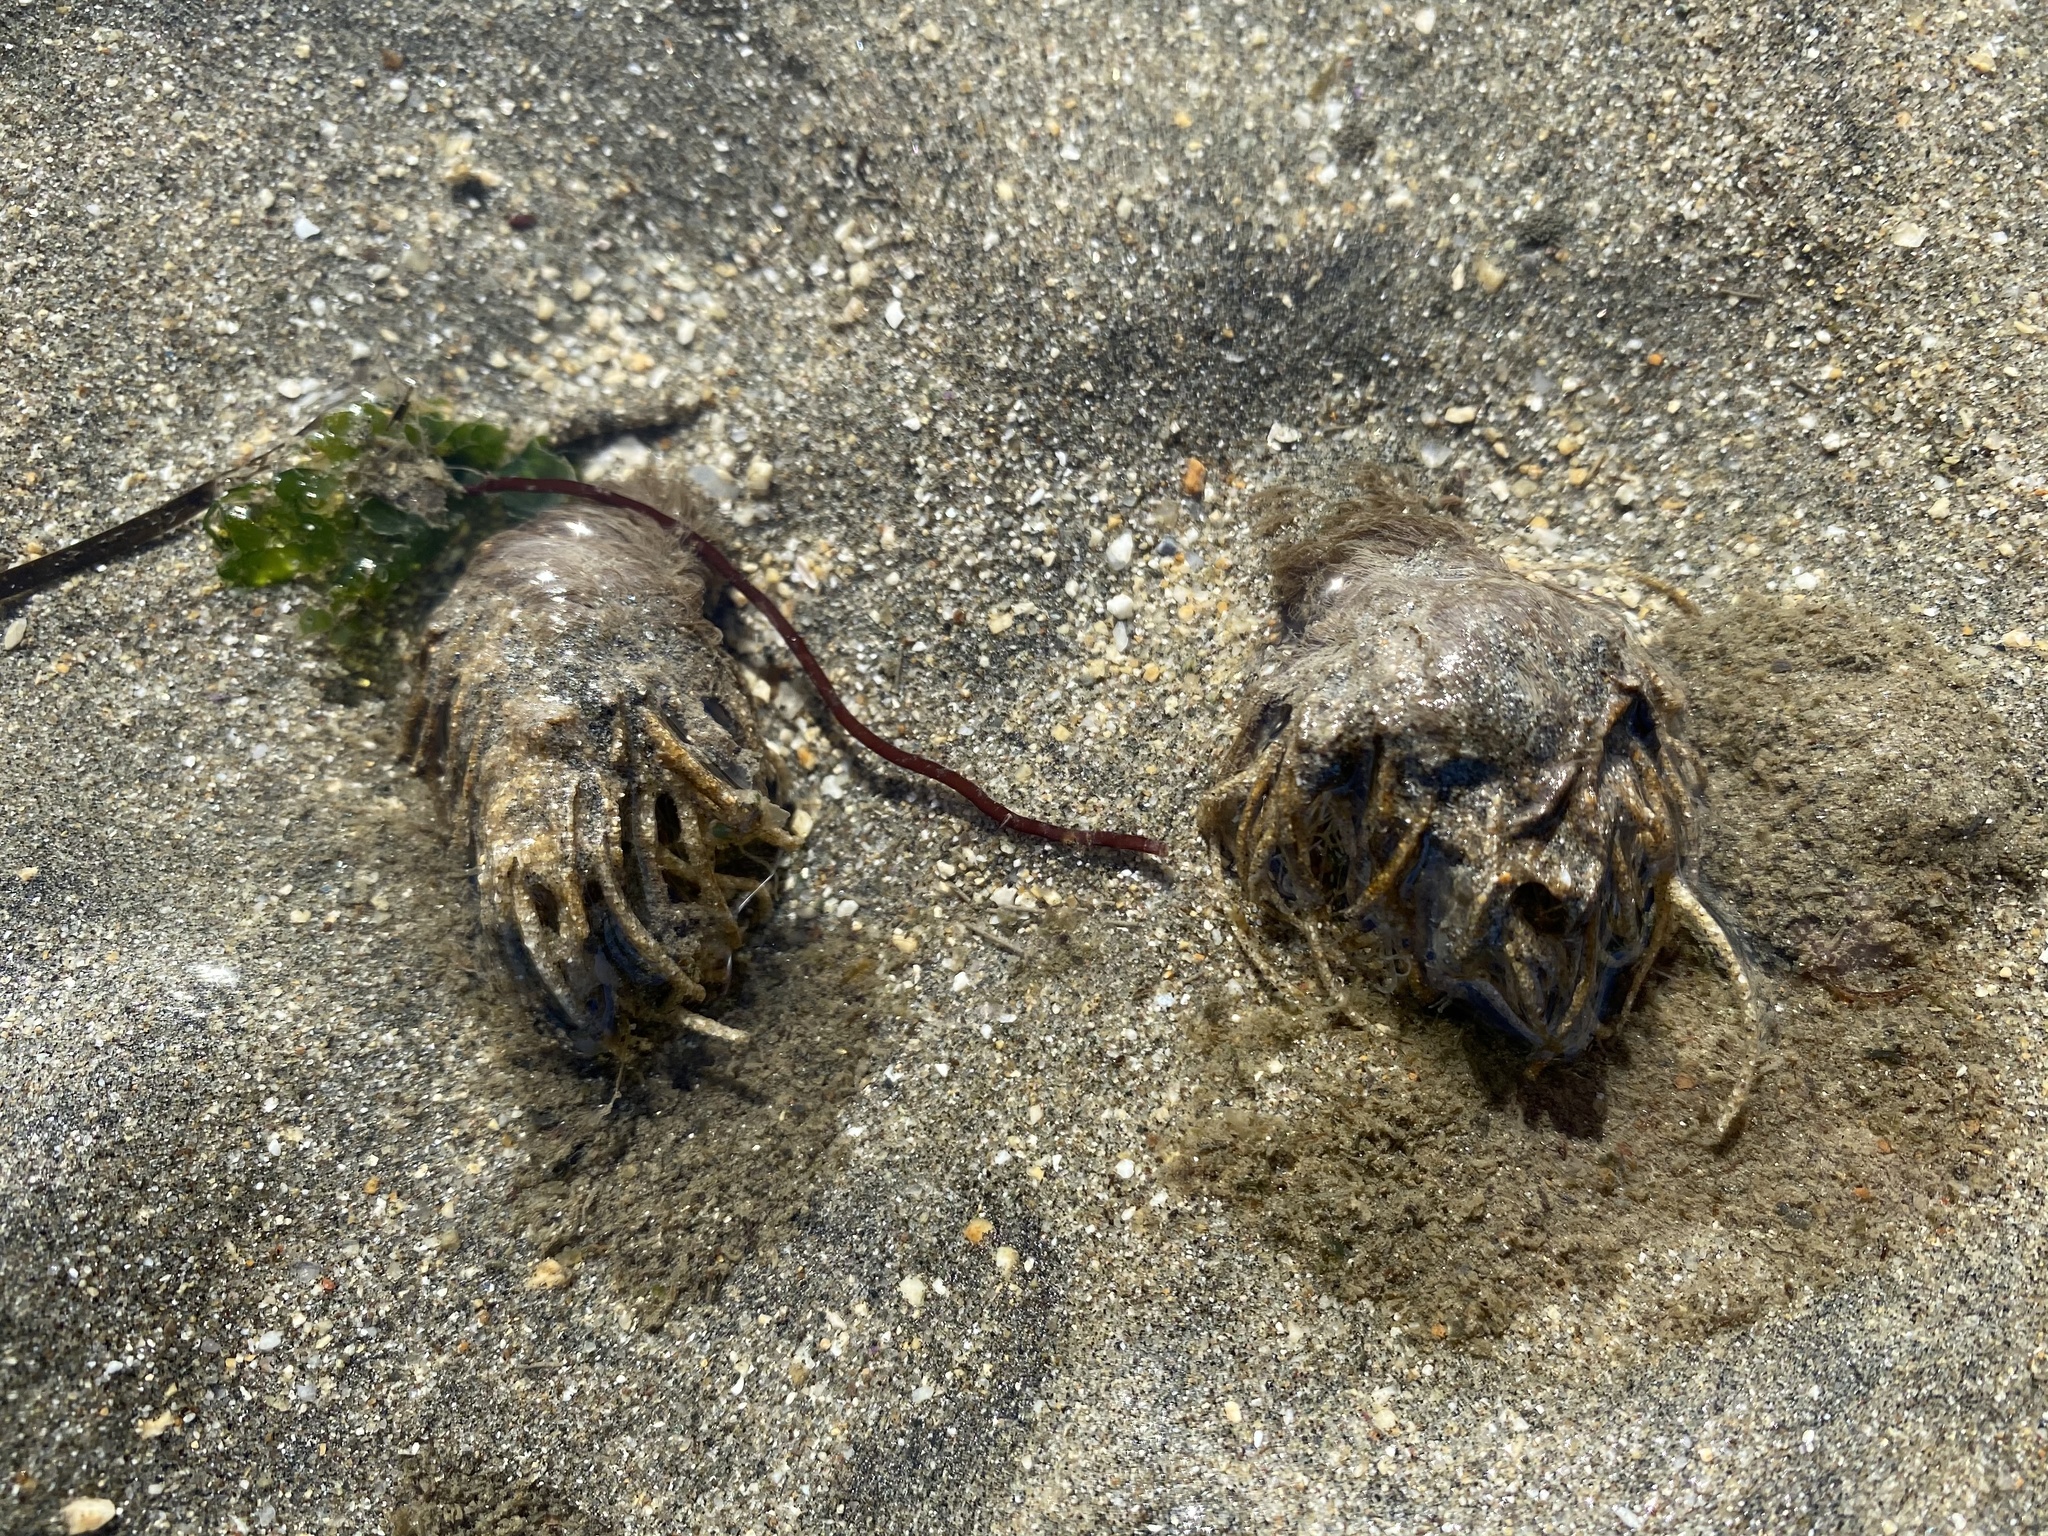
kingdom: Animalia
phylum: Annelida
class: Polychaeta
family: Terebellidae
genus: Pista
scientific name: Pista pacifica
